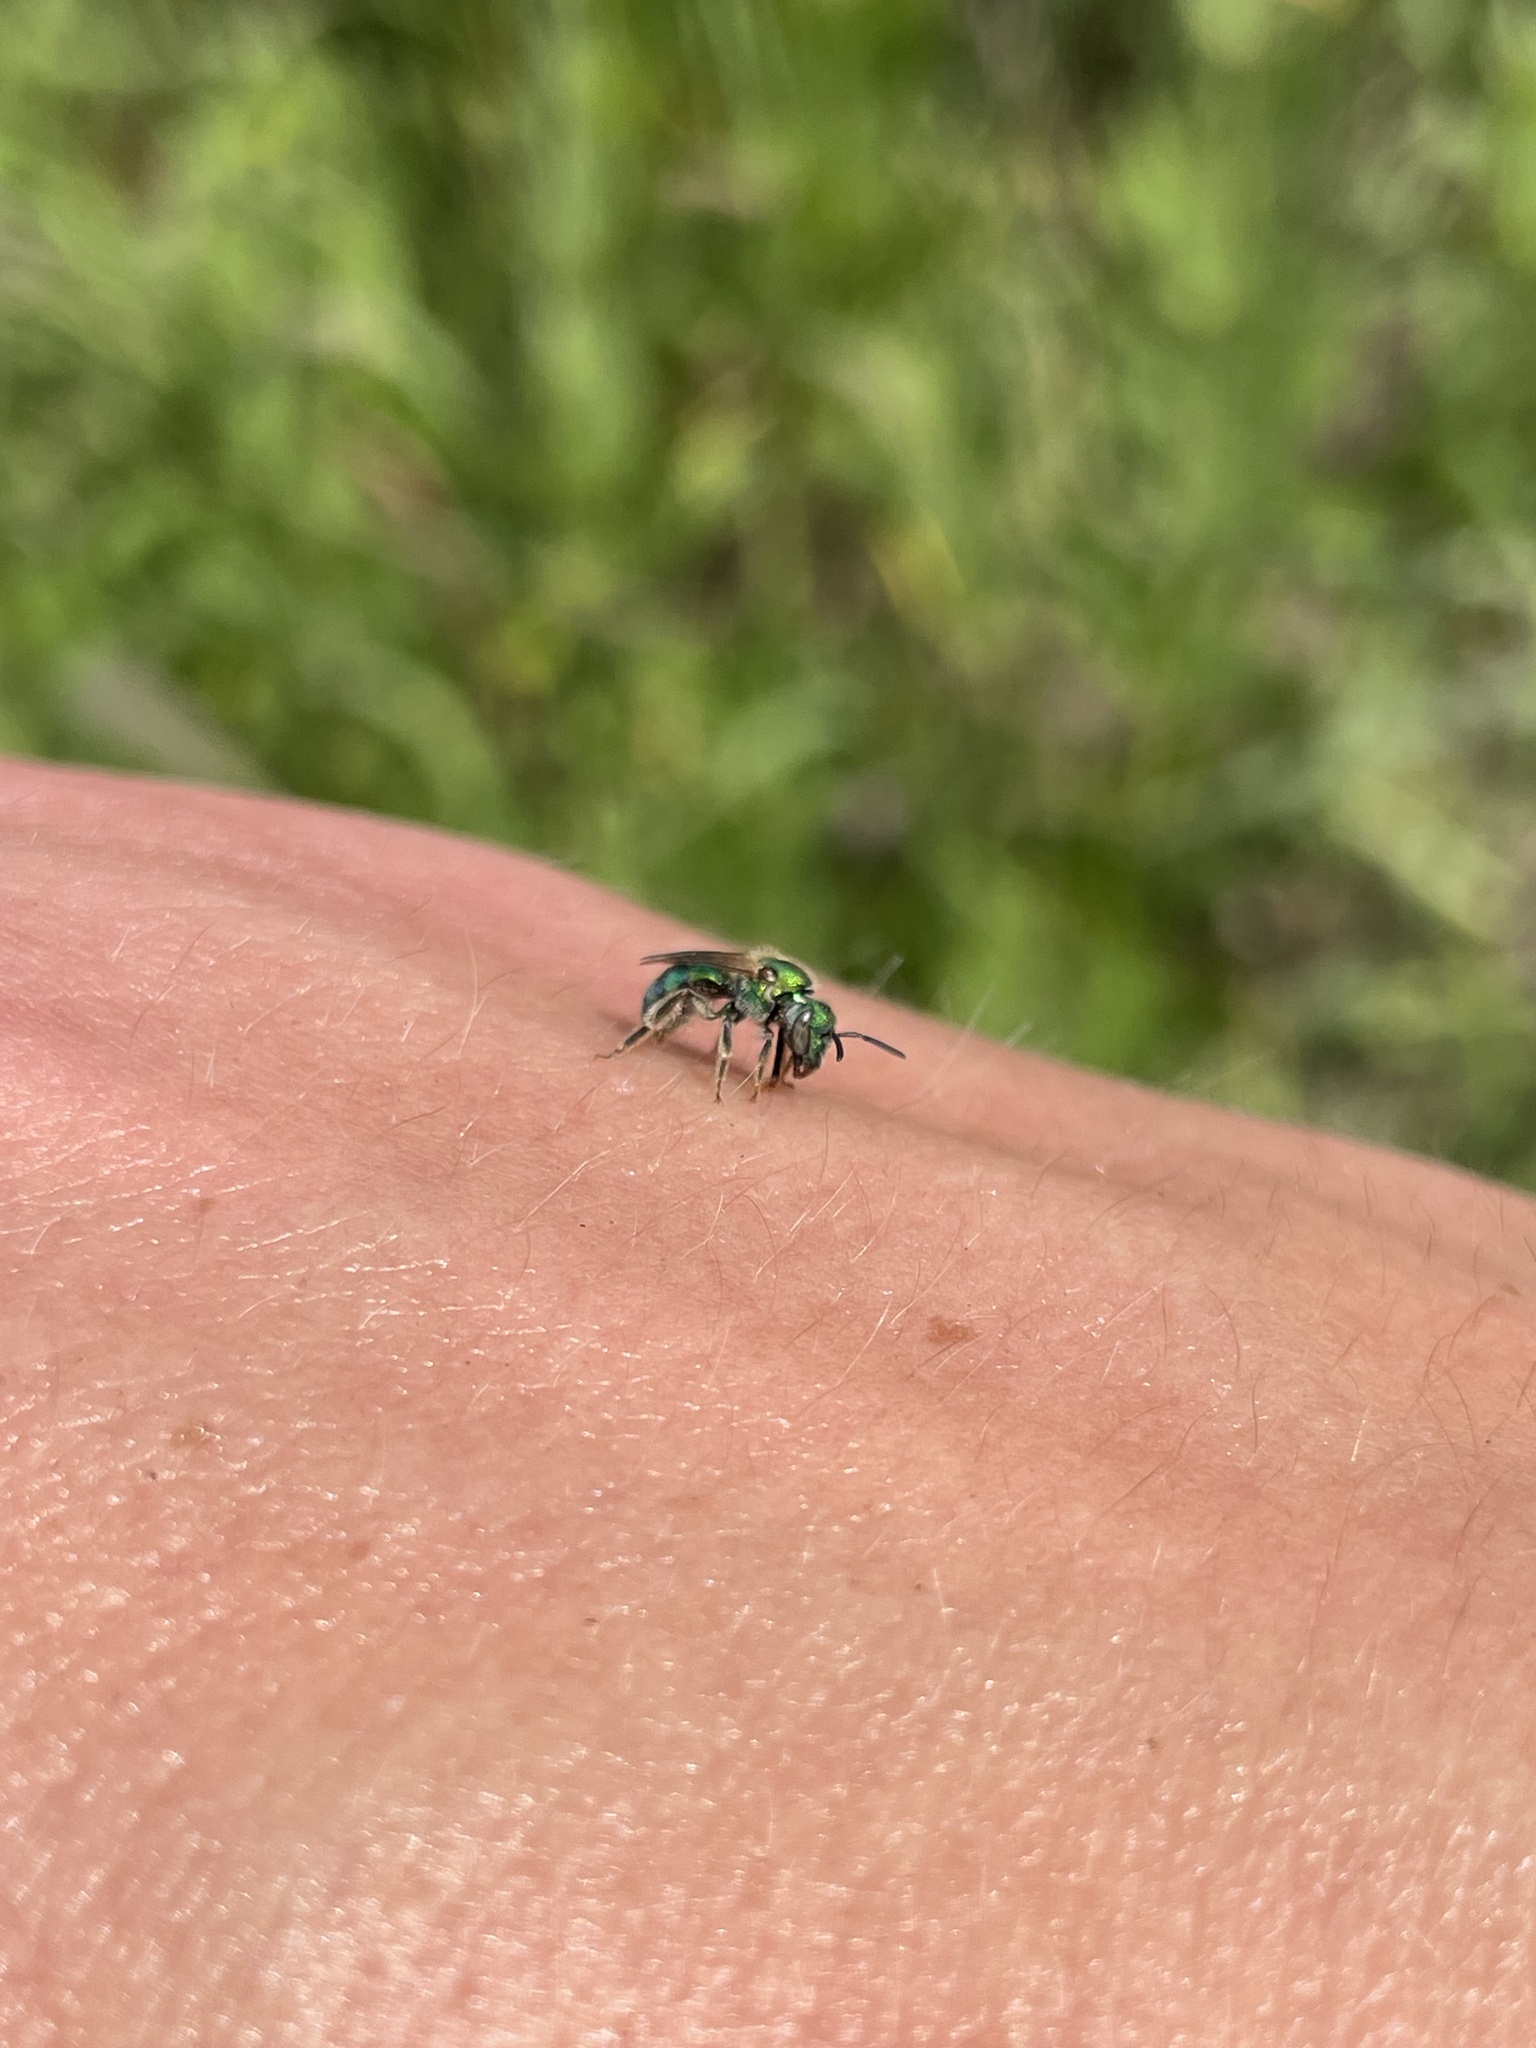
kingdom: Animalia
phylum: Arthropoda
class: Insecta
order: Hymenoptera
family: Halictidae
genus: Augochlorella
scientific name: Augochlorella aurata
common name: Golden sweat bee
